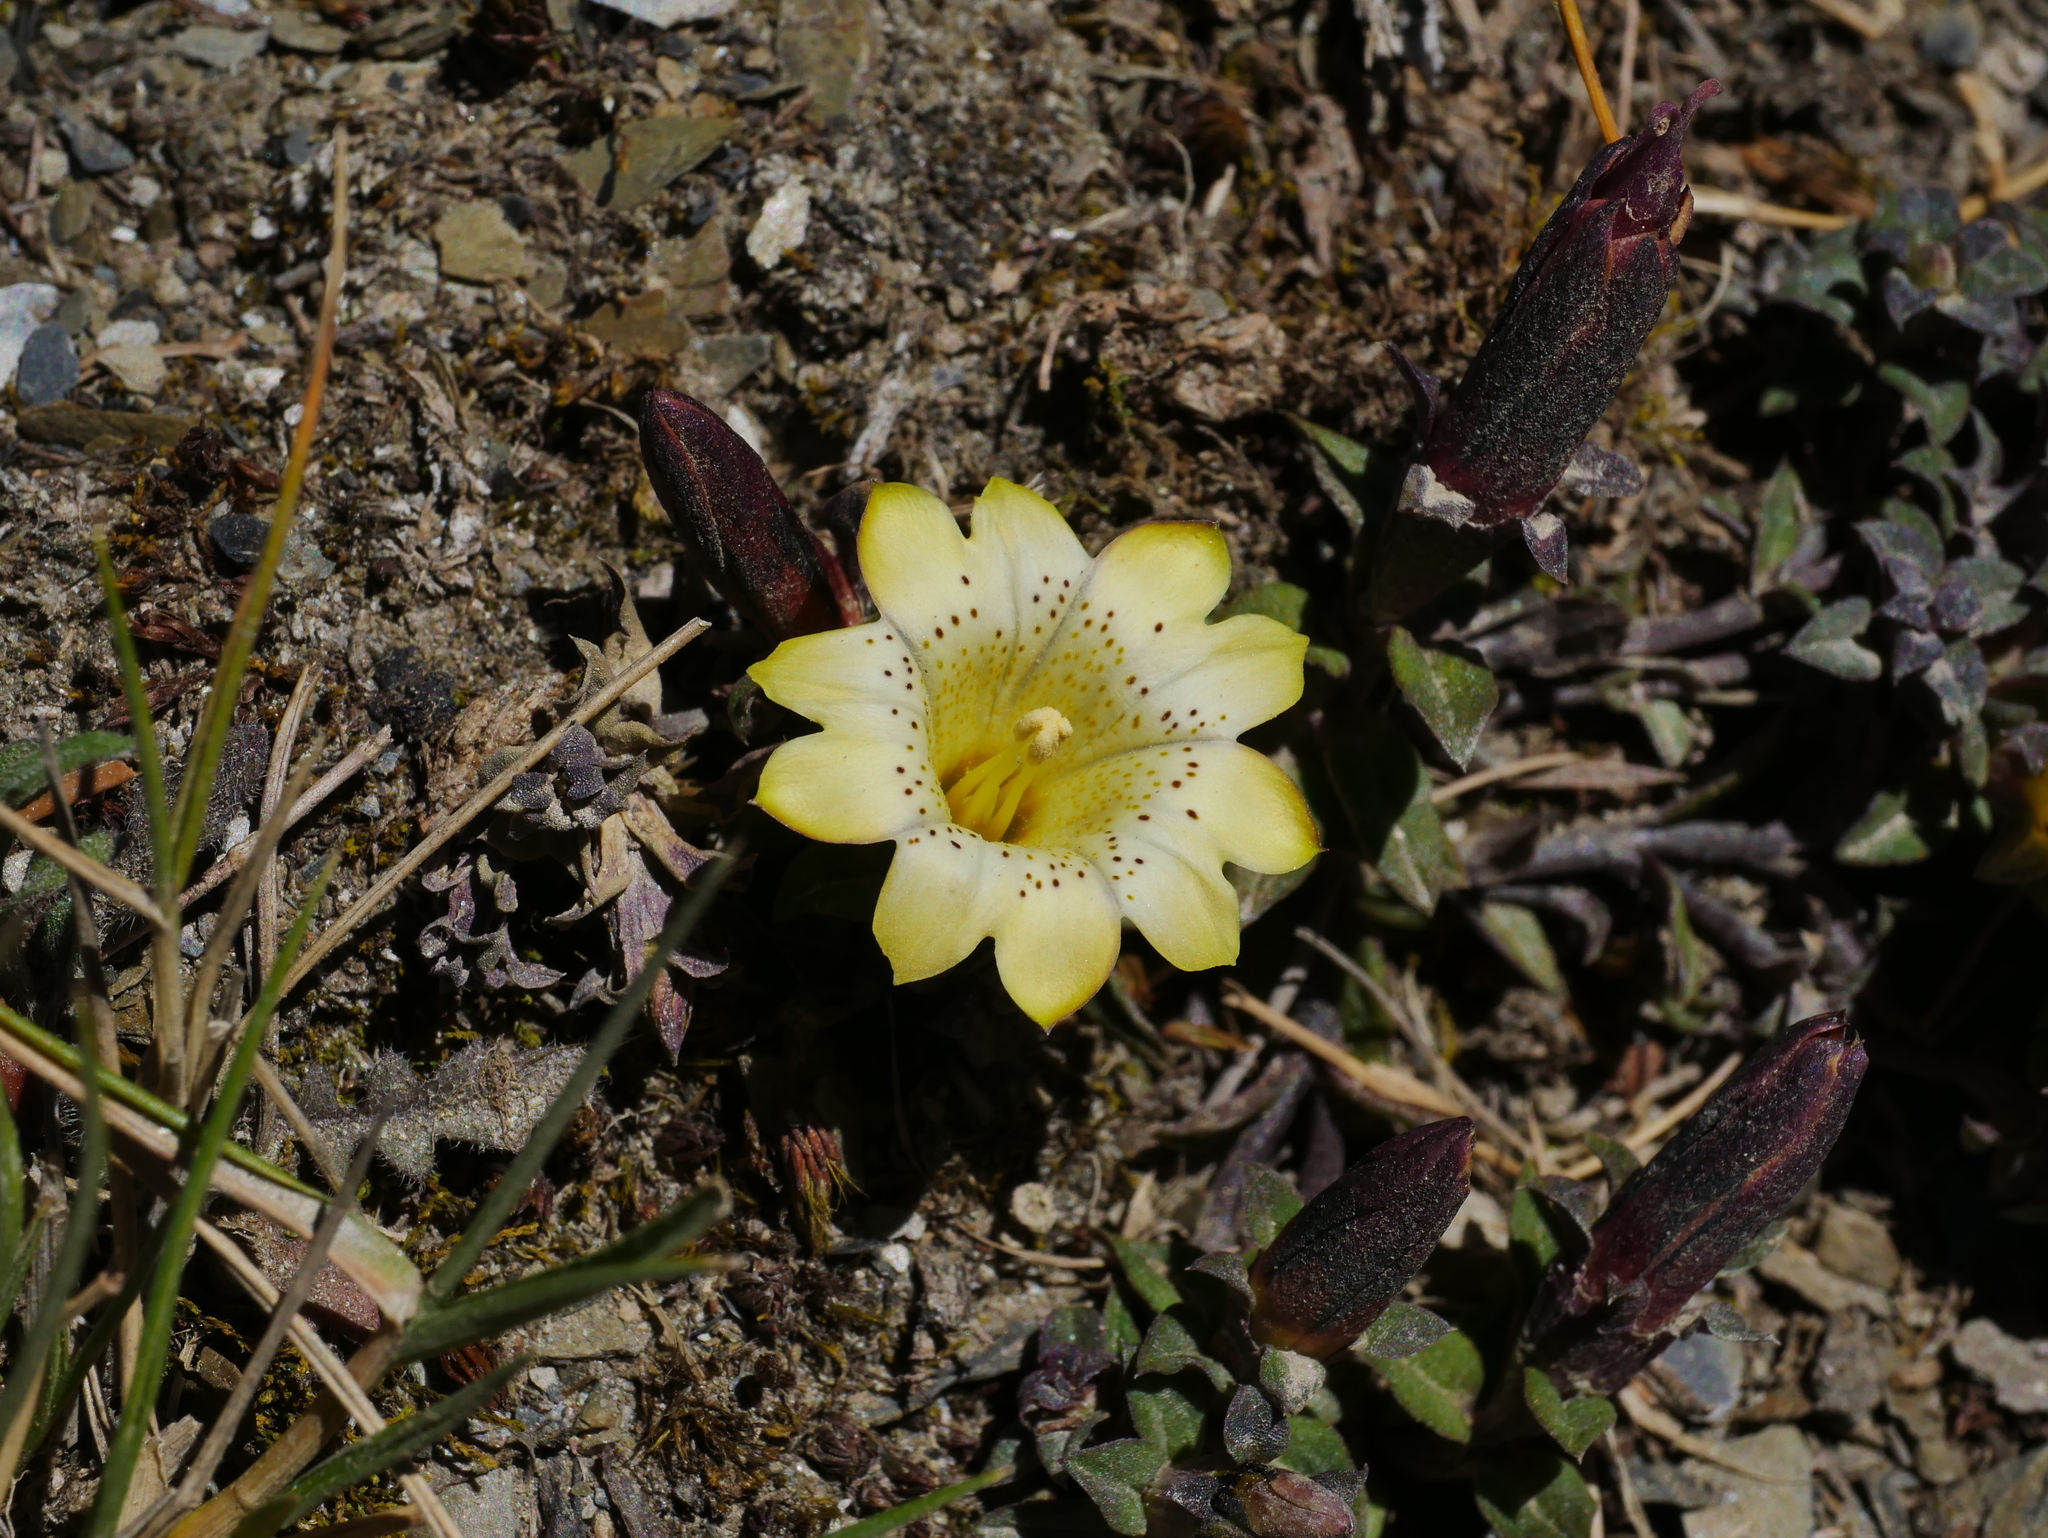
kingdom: Plantae
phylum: Tracheophyta
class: Magnoliopsida
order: Gentianales
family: Gentianaceae
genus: Gentiana
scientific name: Gentiana scabrida
